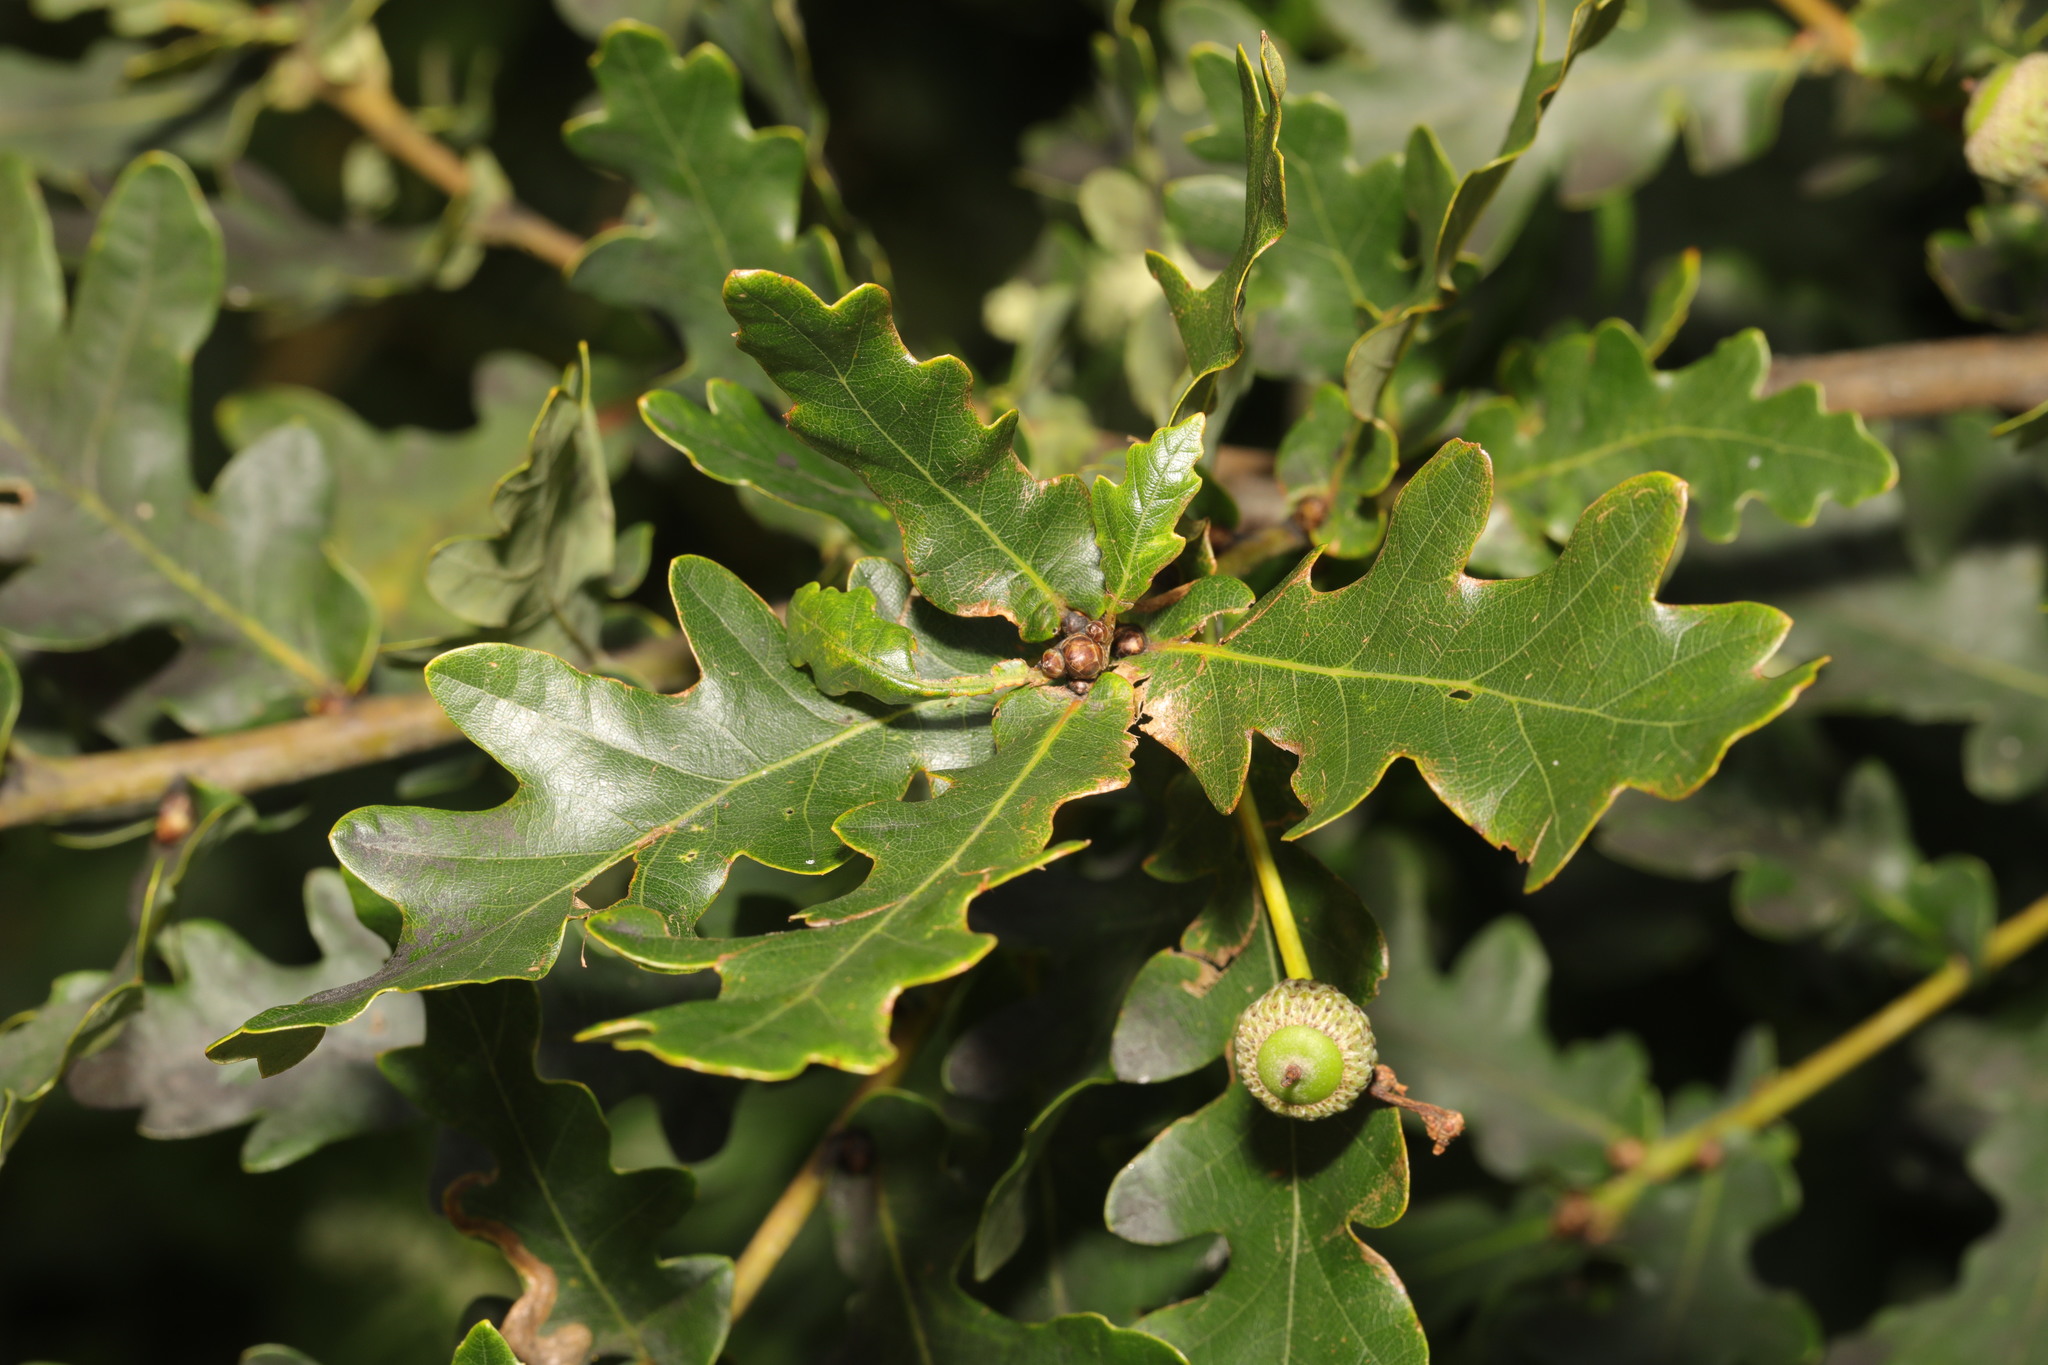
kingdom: Plantae
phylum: Tracheophyta
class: Magnoliopsida
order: Fagales
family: Fagaceae
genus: Quercus
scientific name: Quercus robur
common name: Pedunculate oak
